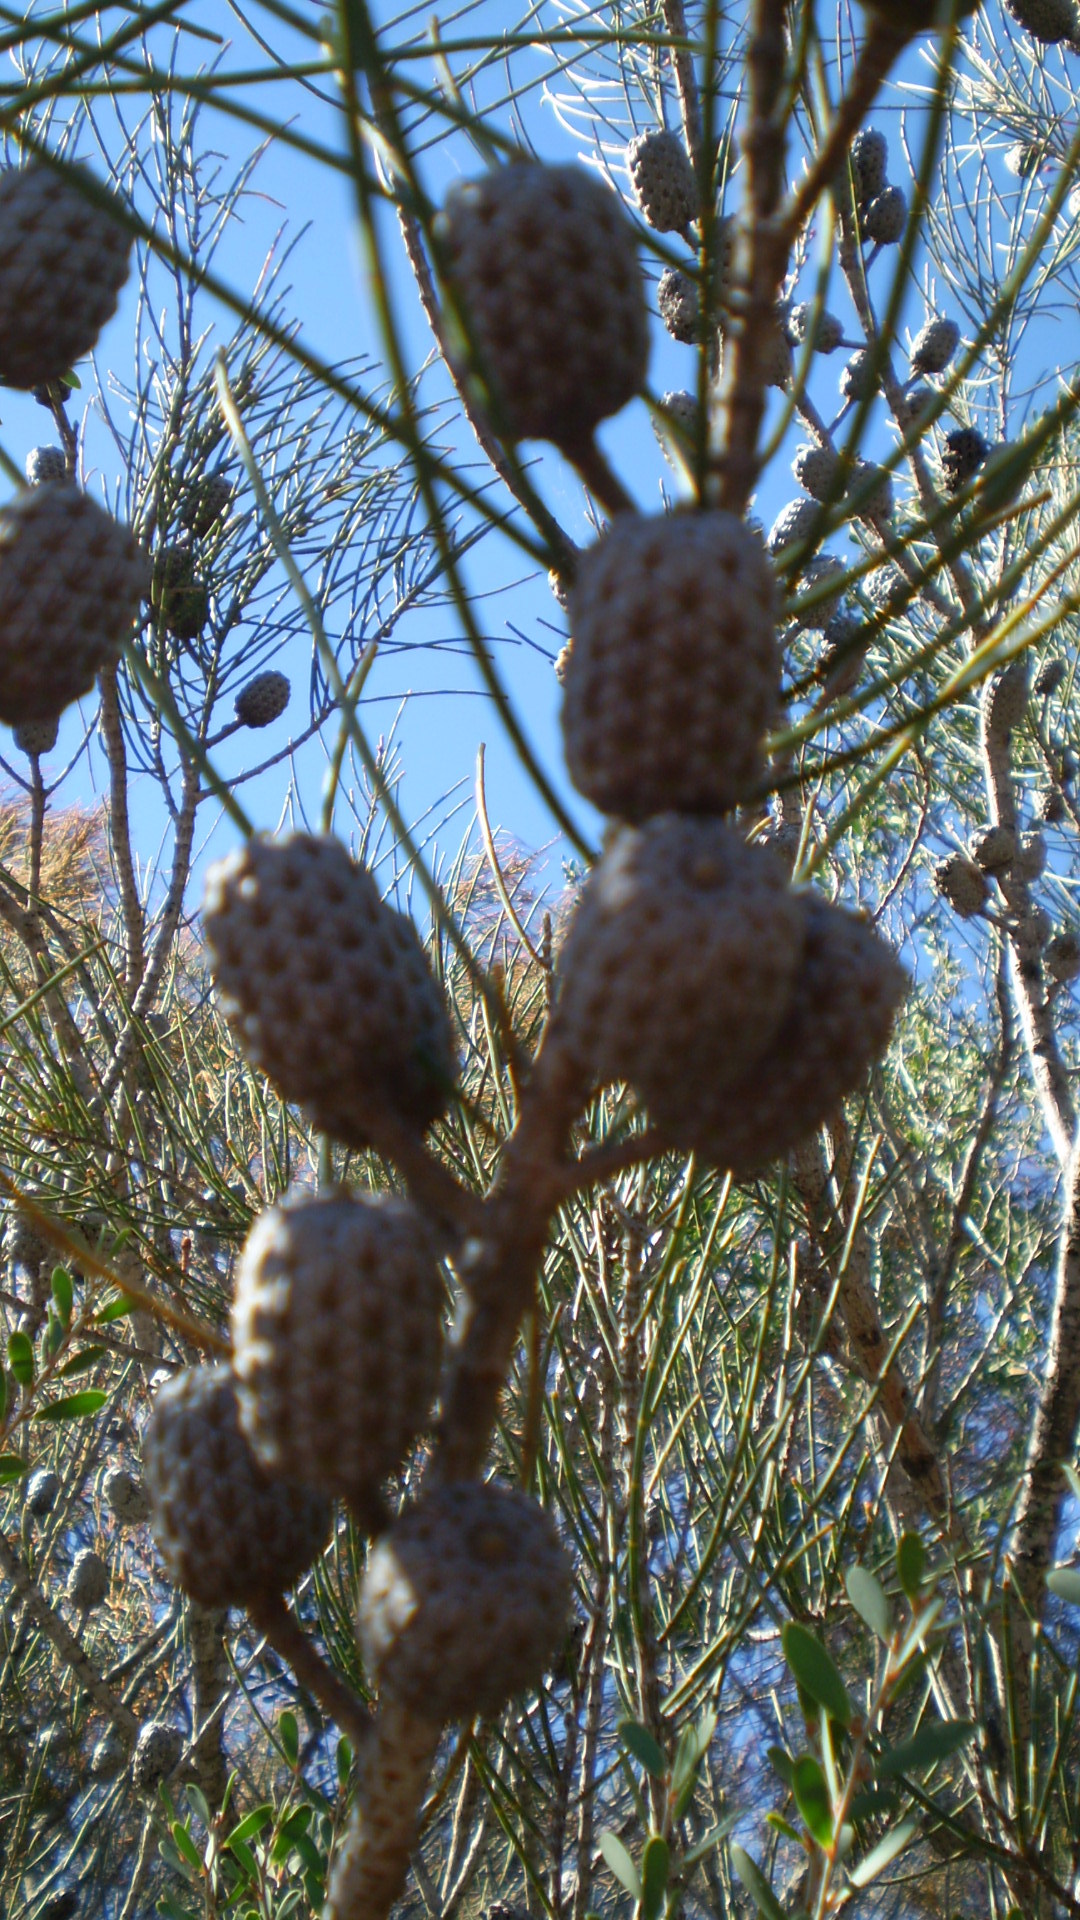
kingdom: Plantae
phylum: Tracheophyta
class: Magnoliopsida
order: Fagales
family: Casuarinaceae
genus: Allocasuarina
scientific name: Allocasuarina distyla
